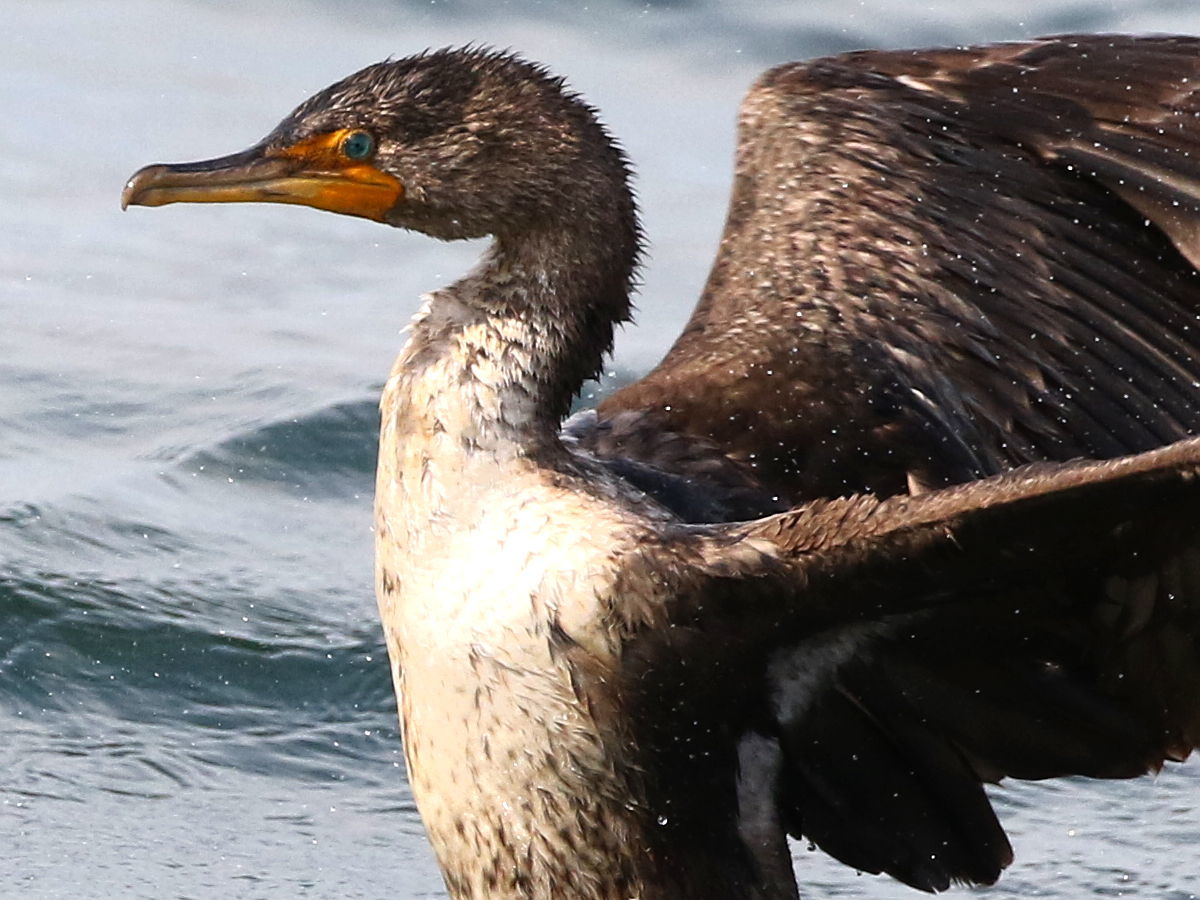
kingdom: Animalia
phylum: Chordata
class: Aves
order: Suliformes
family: Phalacrocoracidae
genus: Phalacrocorax
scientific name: Phalacrocorax auritus
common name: Double-crested cormorant
